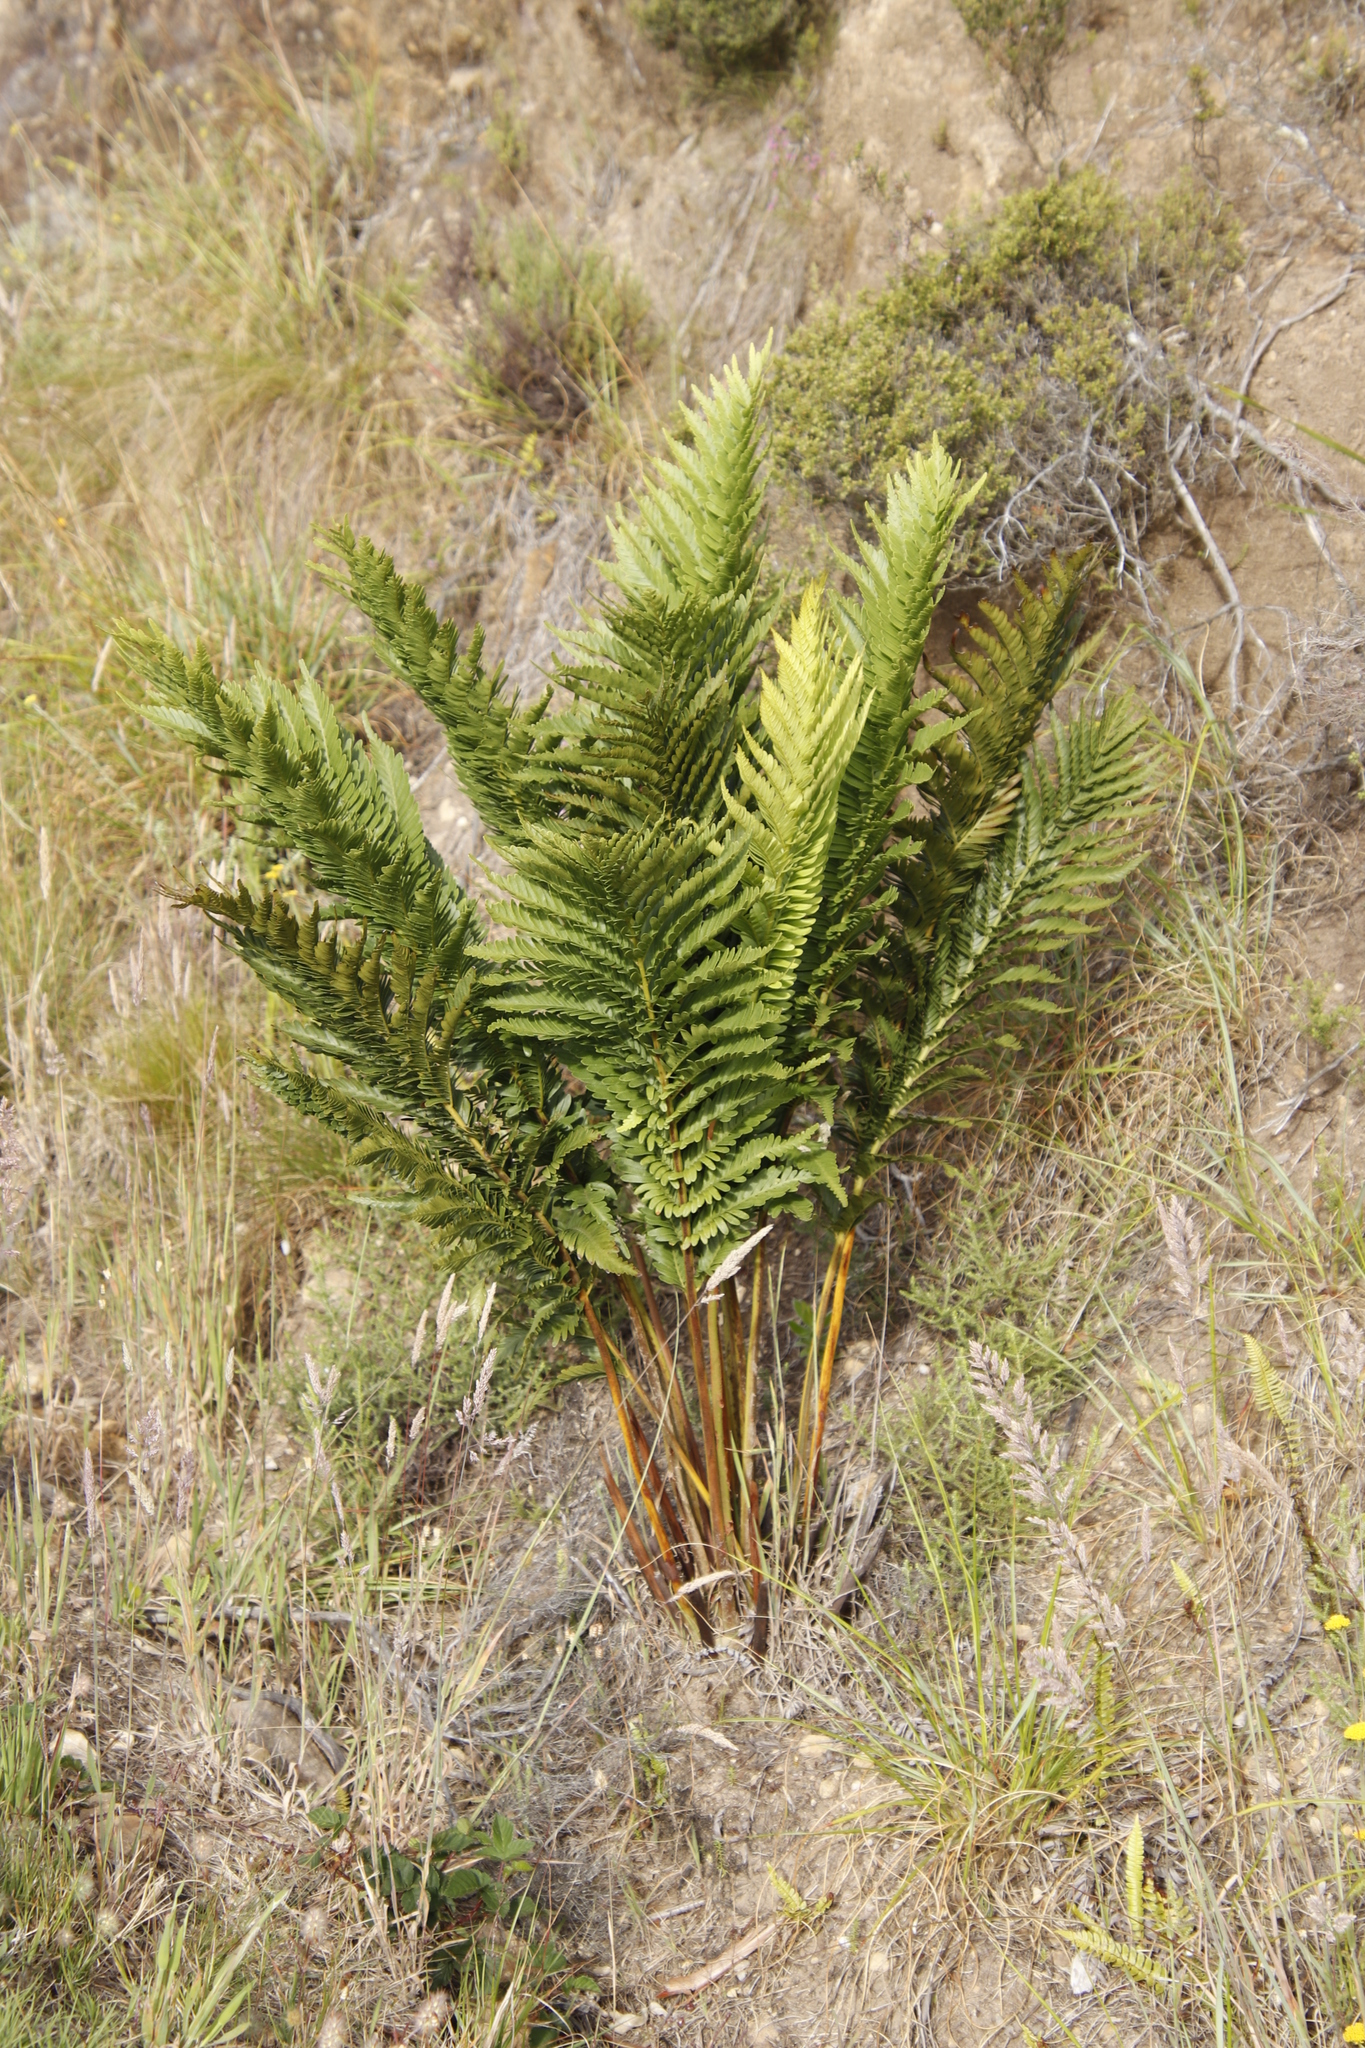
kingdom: Plantae
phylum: Tracheophyta
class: Polypodiopsida
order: Osmundales
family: Osmundaceae
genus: Todea
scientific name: Todea barbara
